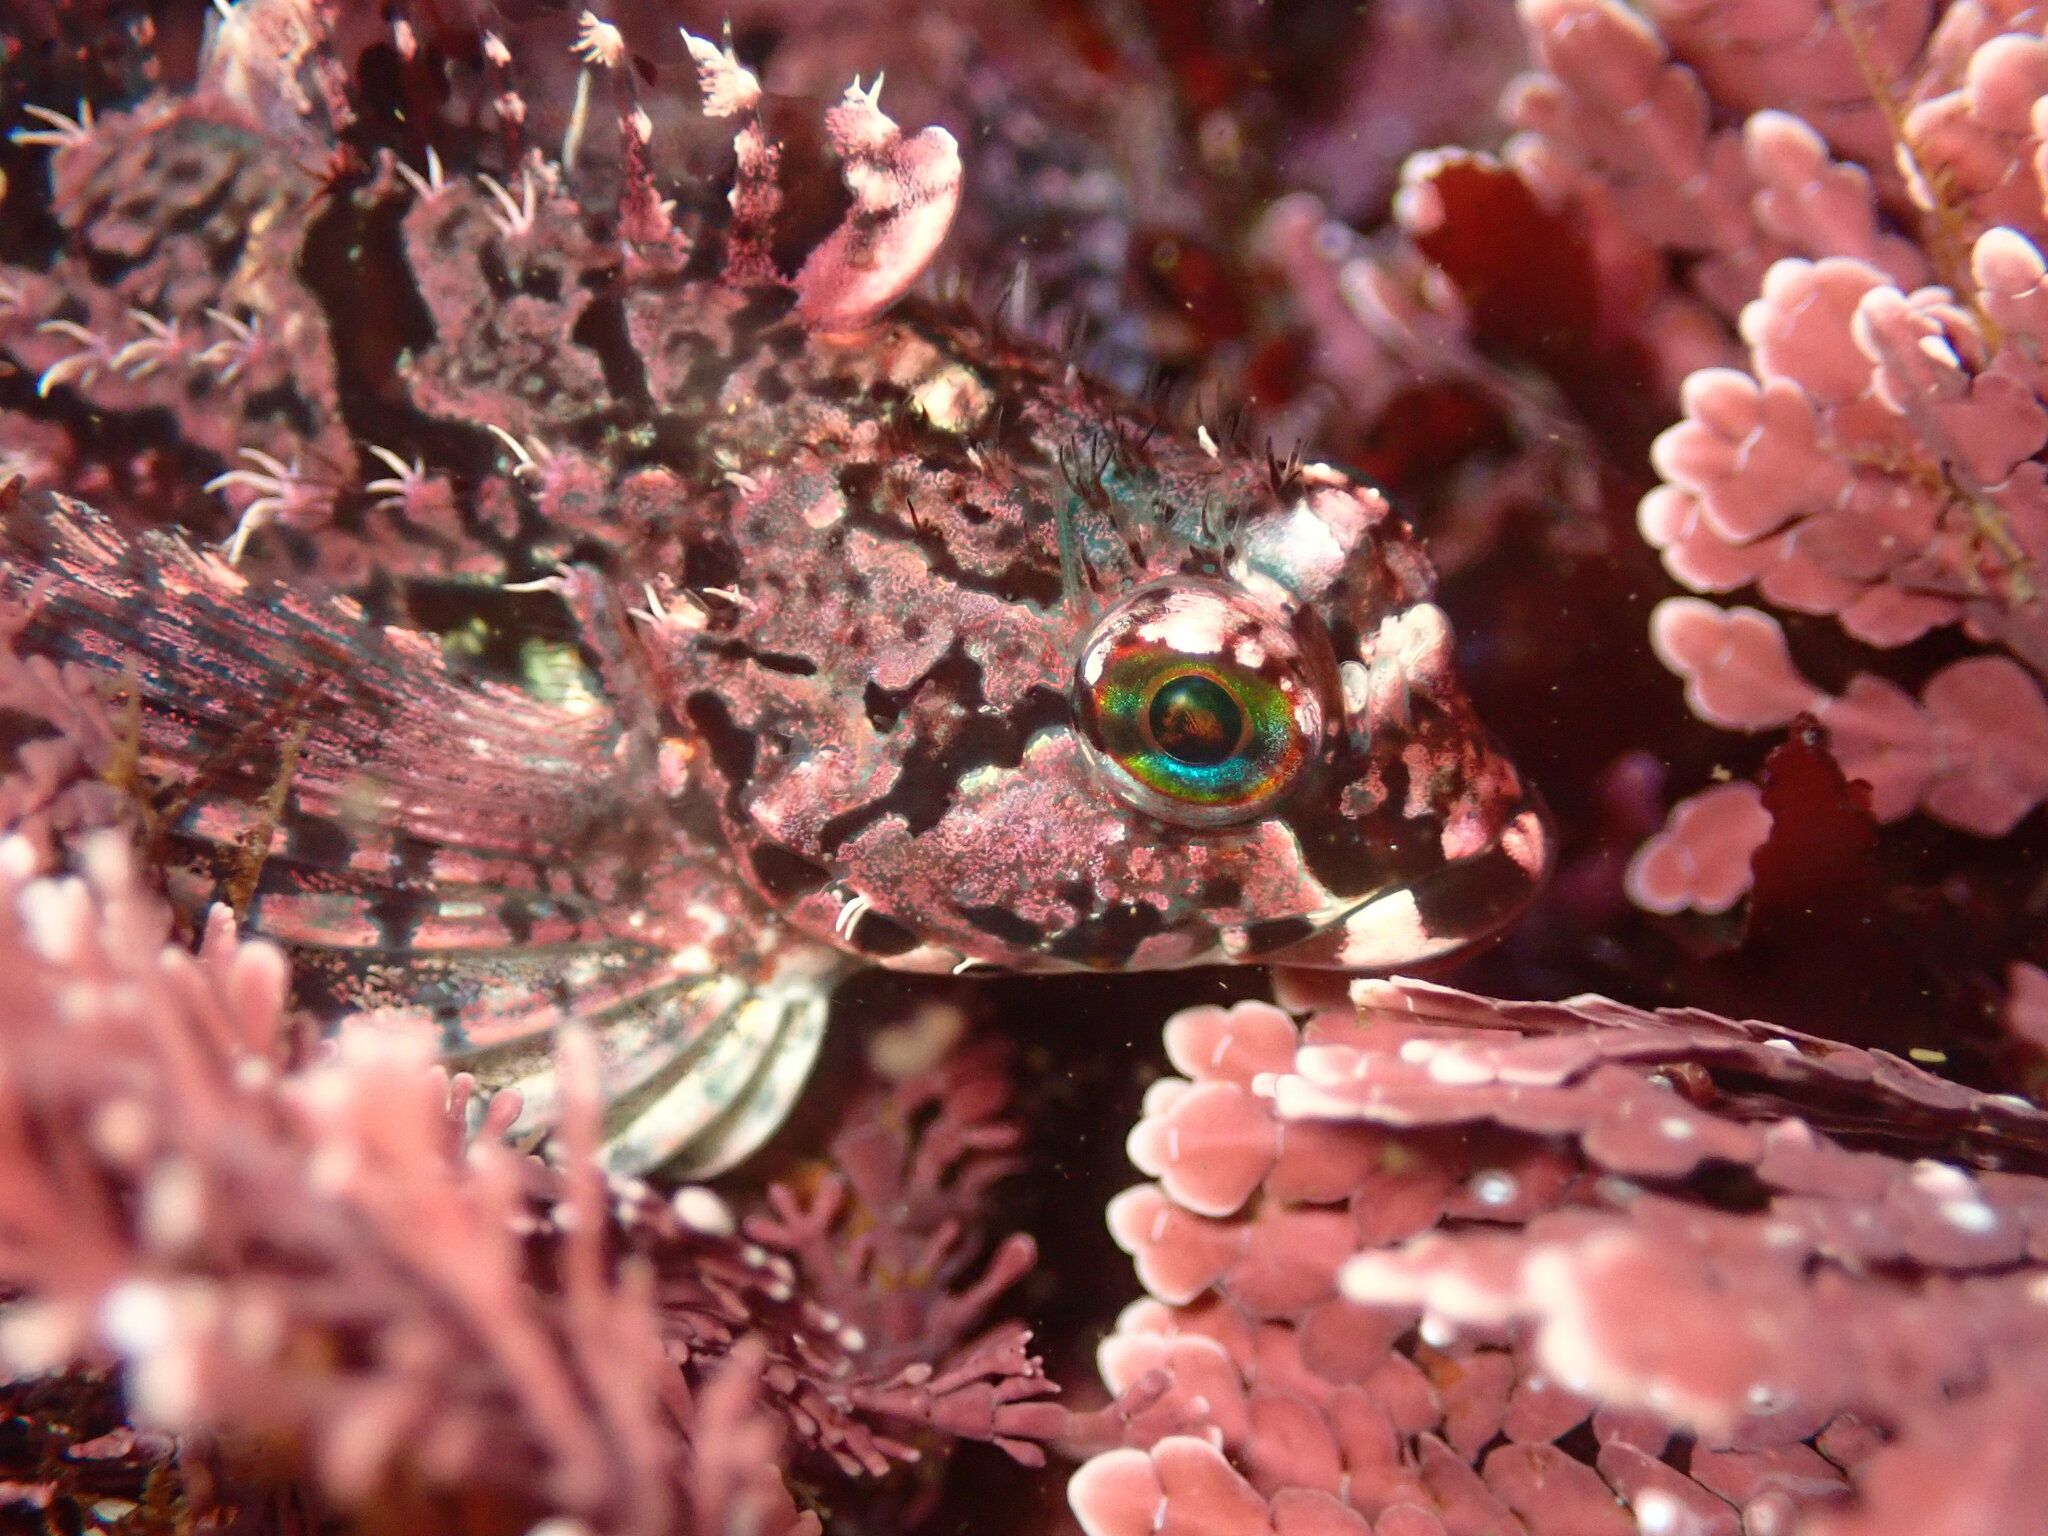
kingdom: Animalia
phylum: Chordata
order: Scorpaeniformes
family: Cottidae
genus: Oligocottus
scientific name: Oligocottus snyderi
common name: Fluffy sculpin
